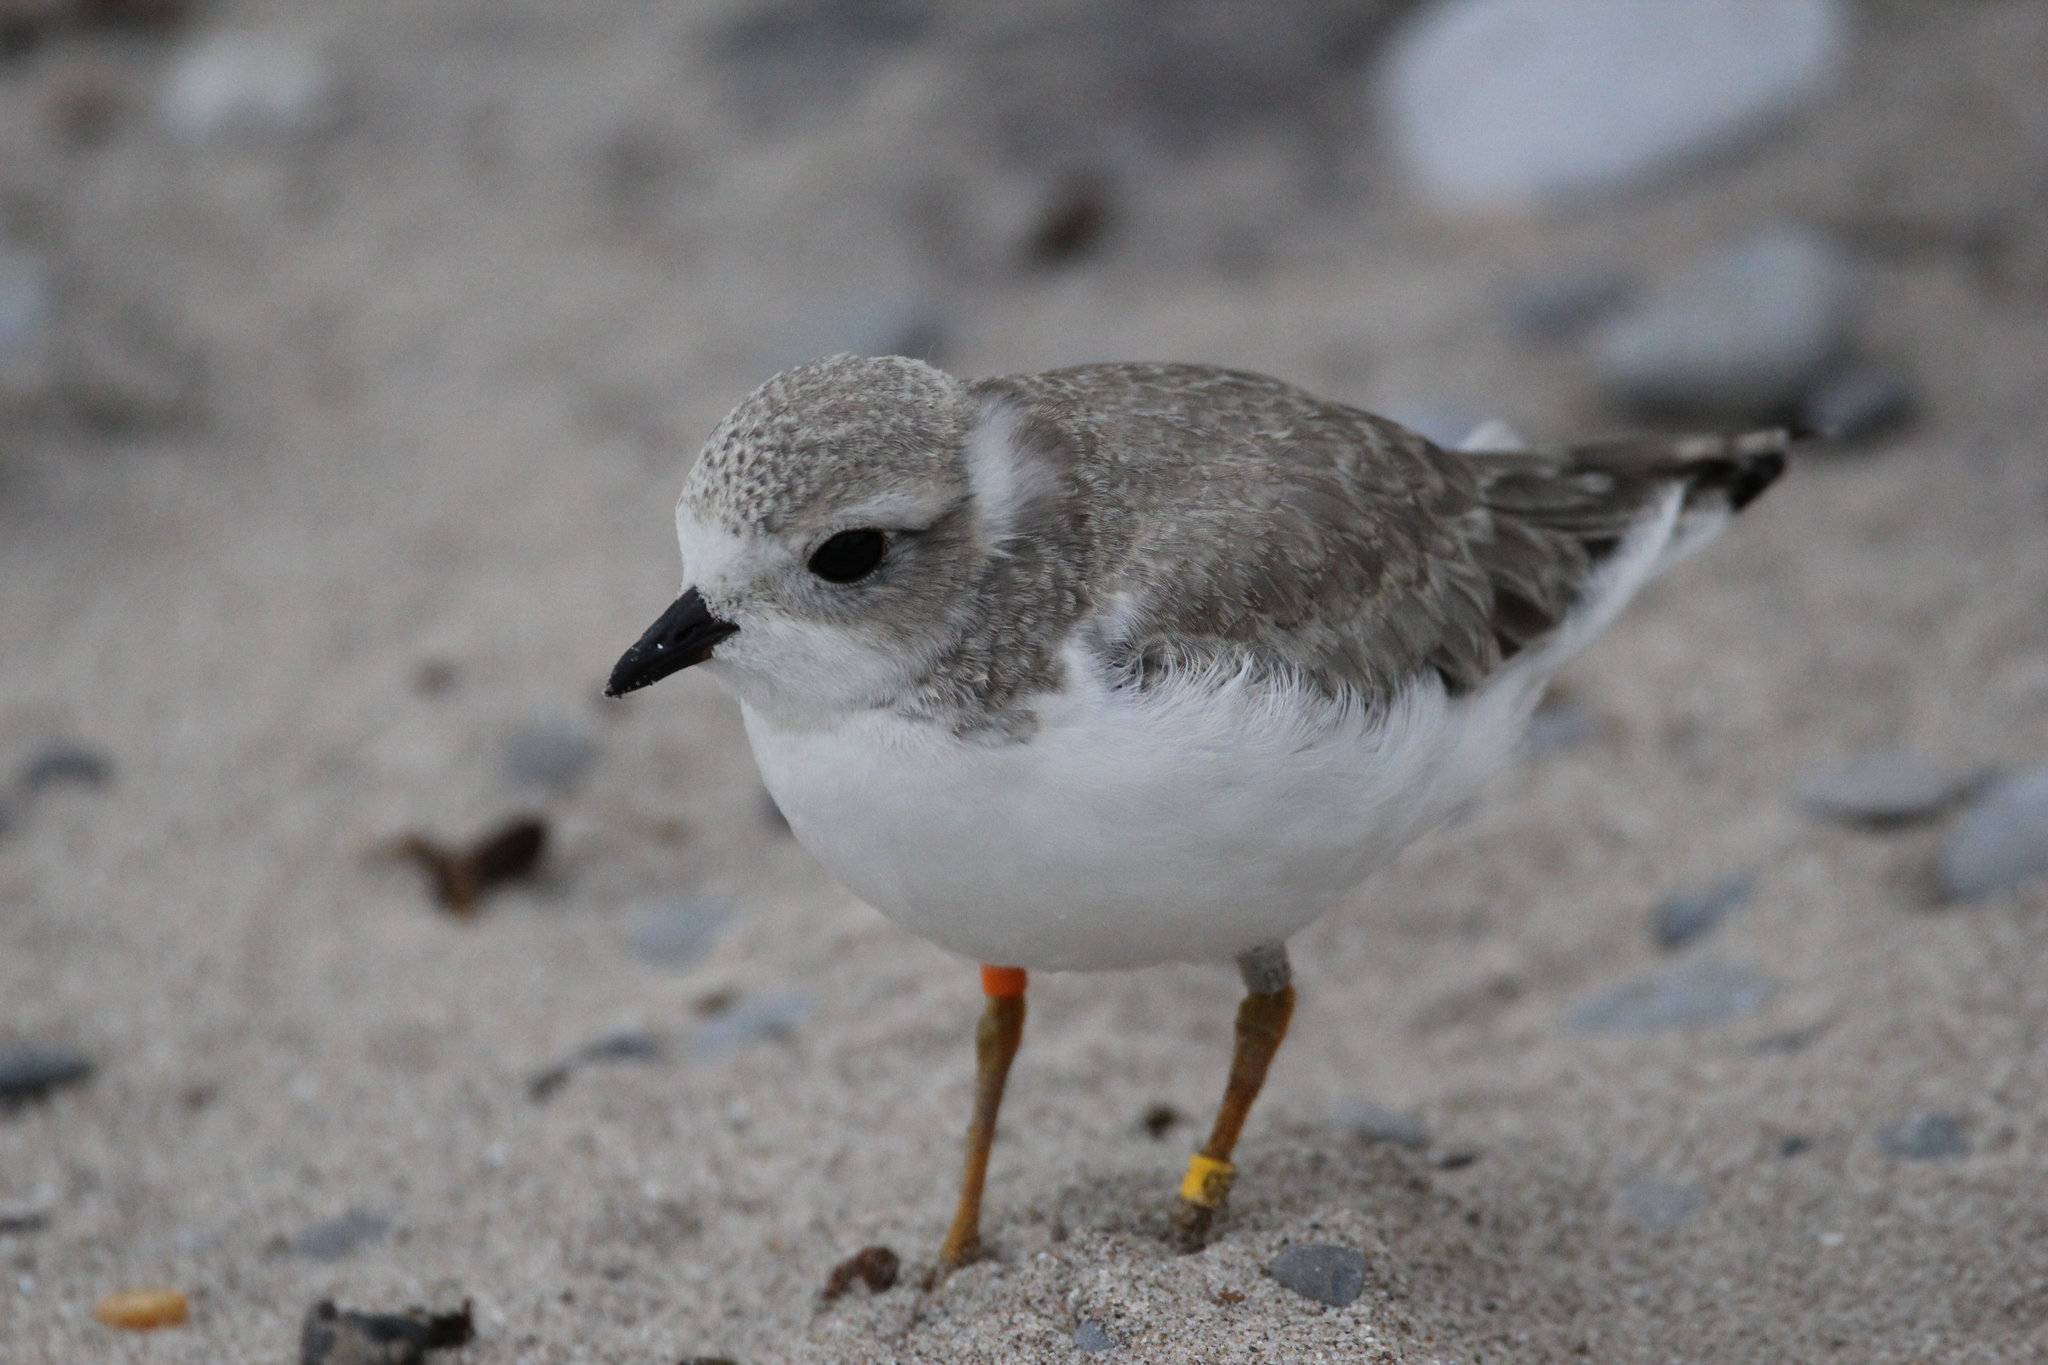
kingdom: Animalia
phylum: Chordata
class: Aves
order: Charadriiformes
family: Charadriidae
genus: Charadrius
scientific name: Charadrius melodus
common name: Piping plover
